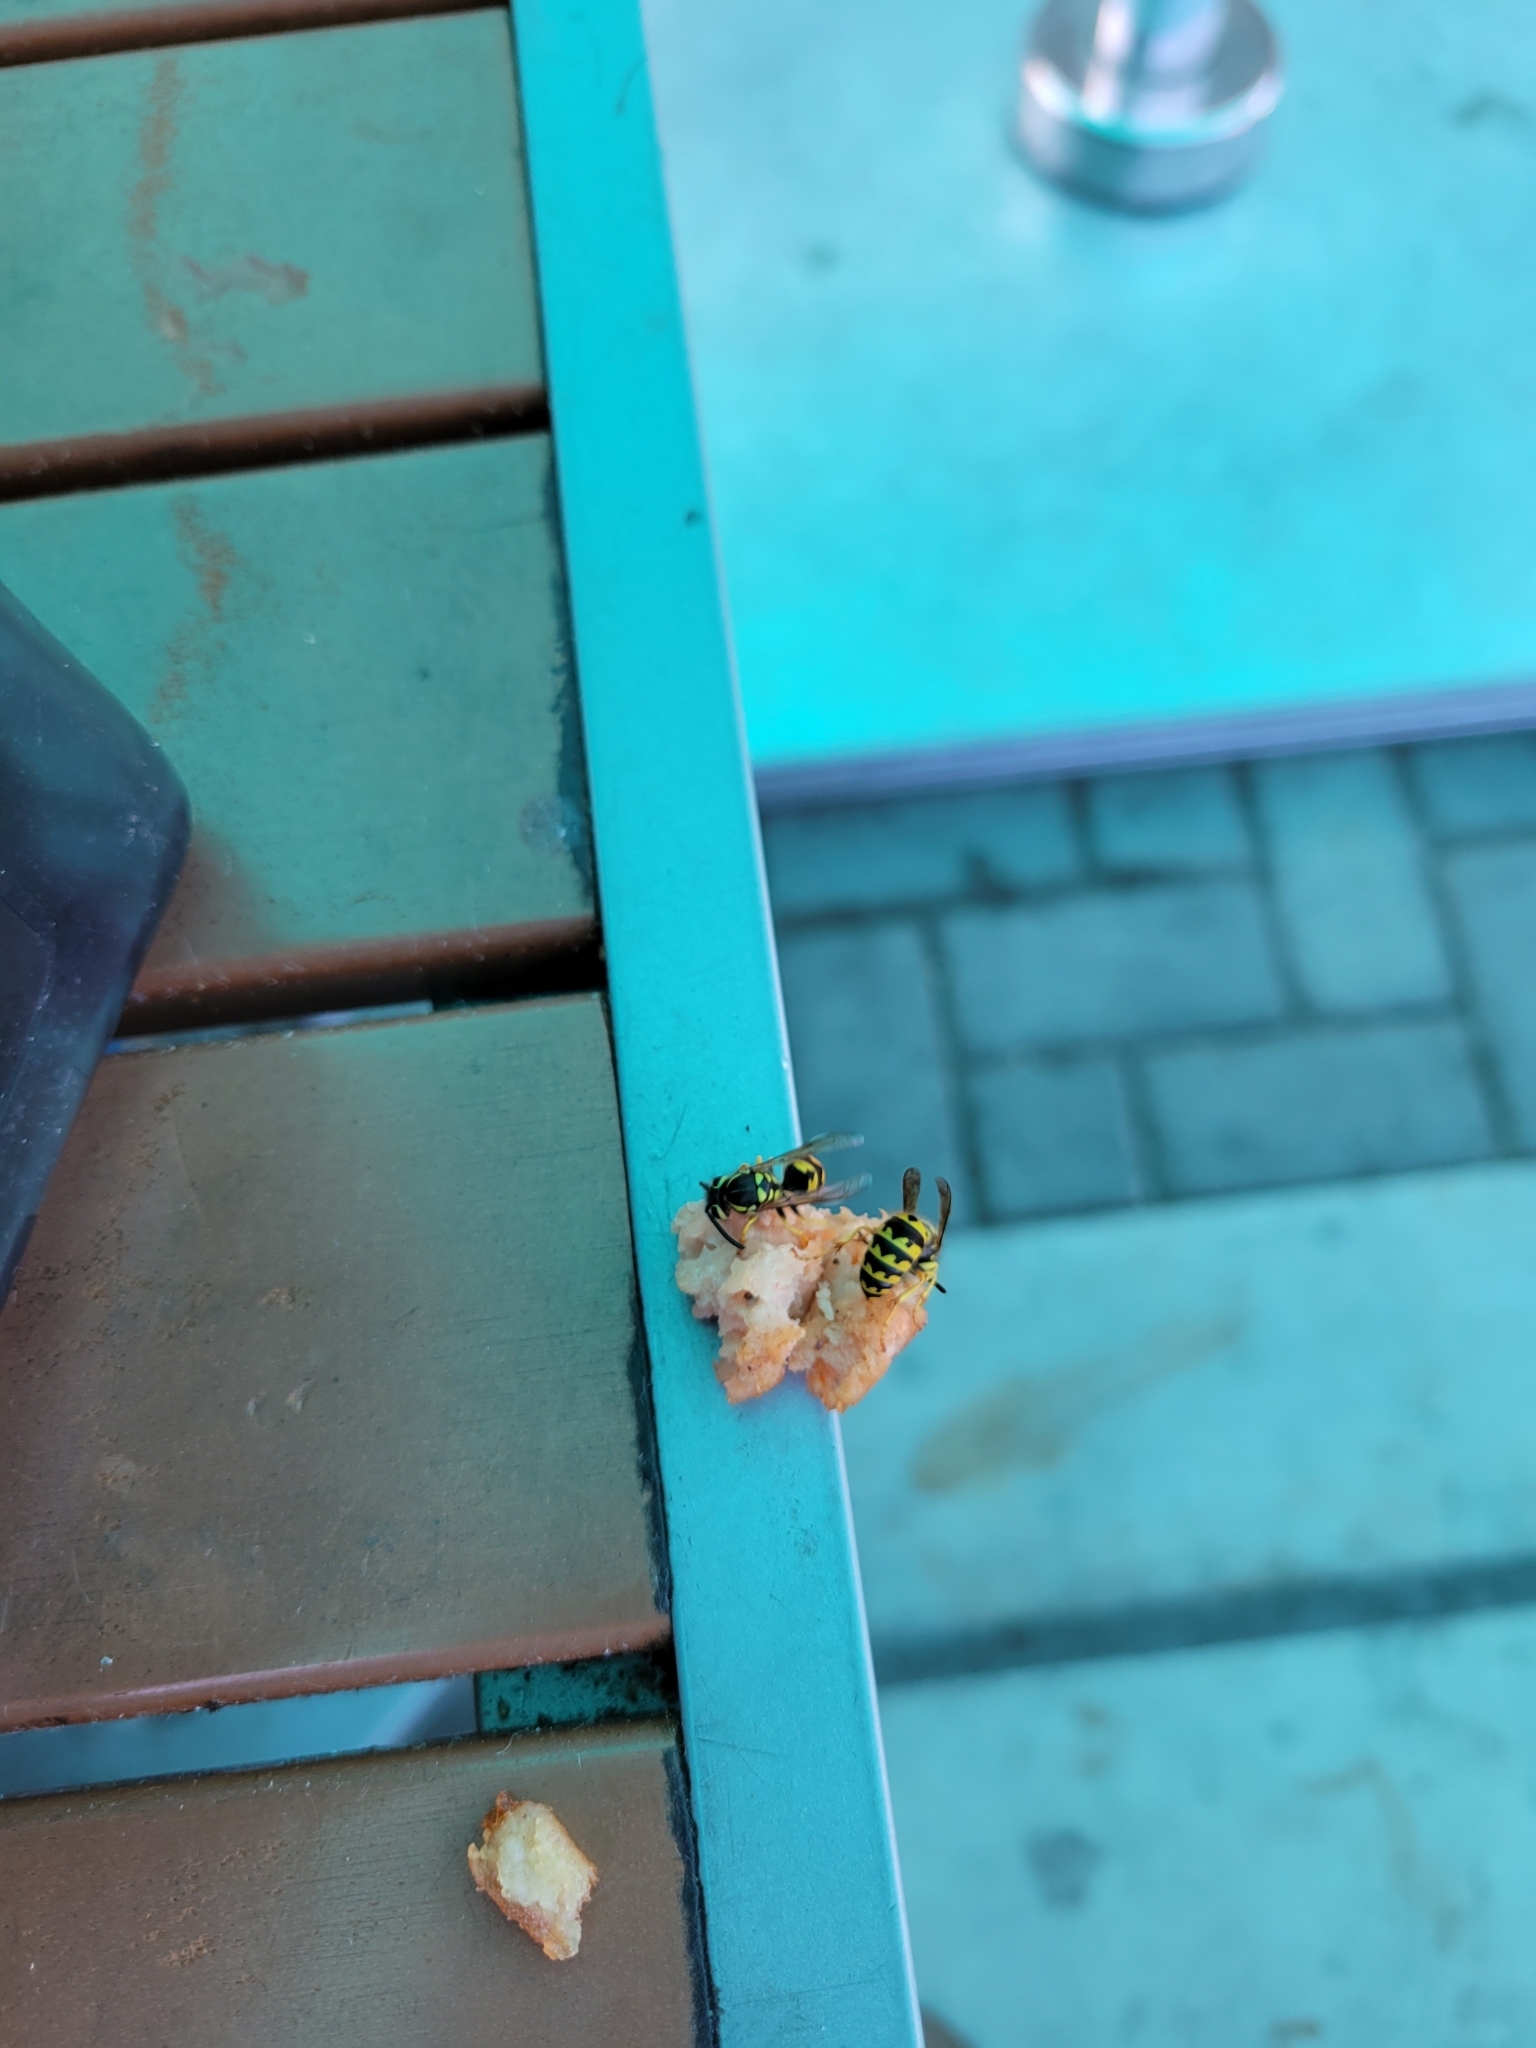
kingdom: Animalia
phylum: Arthropoda
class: Insecta
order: Hymenoptera
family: Vespidae
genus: Vespula
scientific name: Vespula pensylvanica
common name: Western yellowjacket
